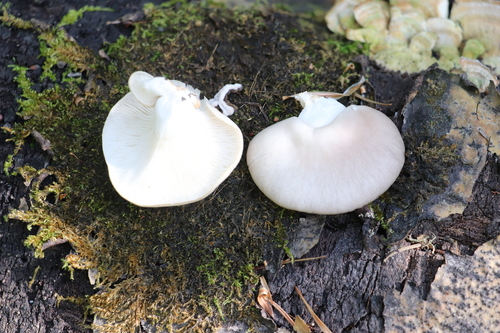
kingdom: Fungi
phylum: Basidiomycota
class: Agaricomycetes
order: Agaricales
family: Pleurotaceae
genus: Pleurotus
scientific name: Pleurotus pulmonarius
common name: Pale oyster
